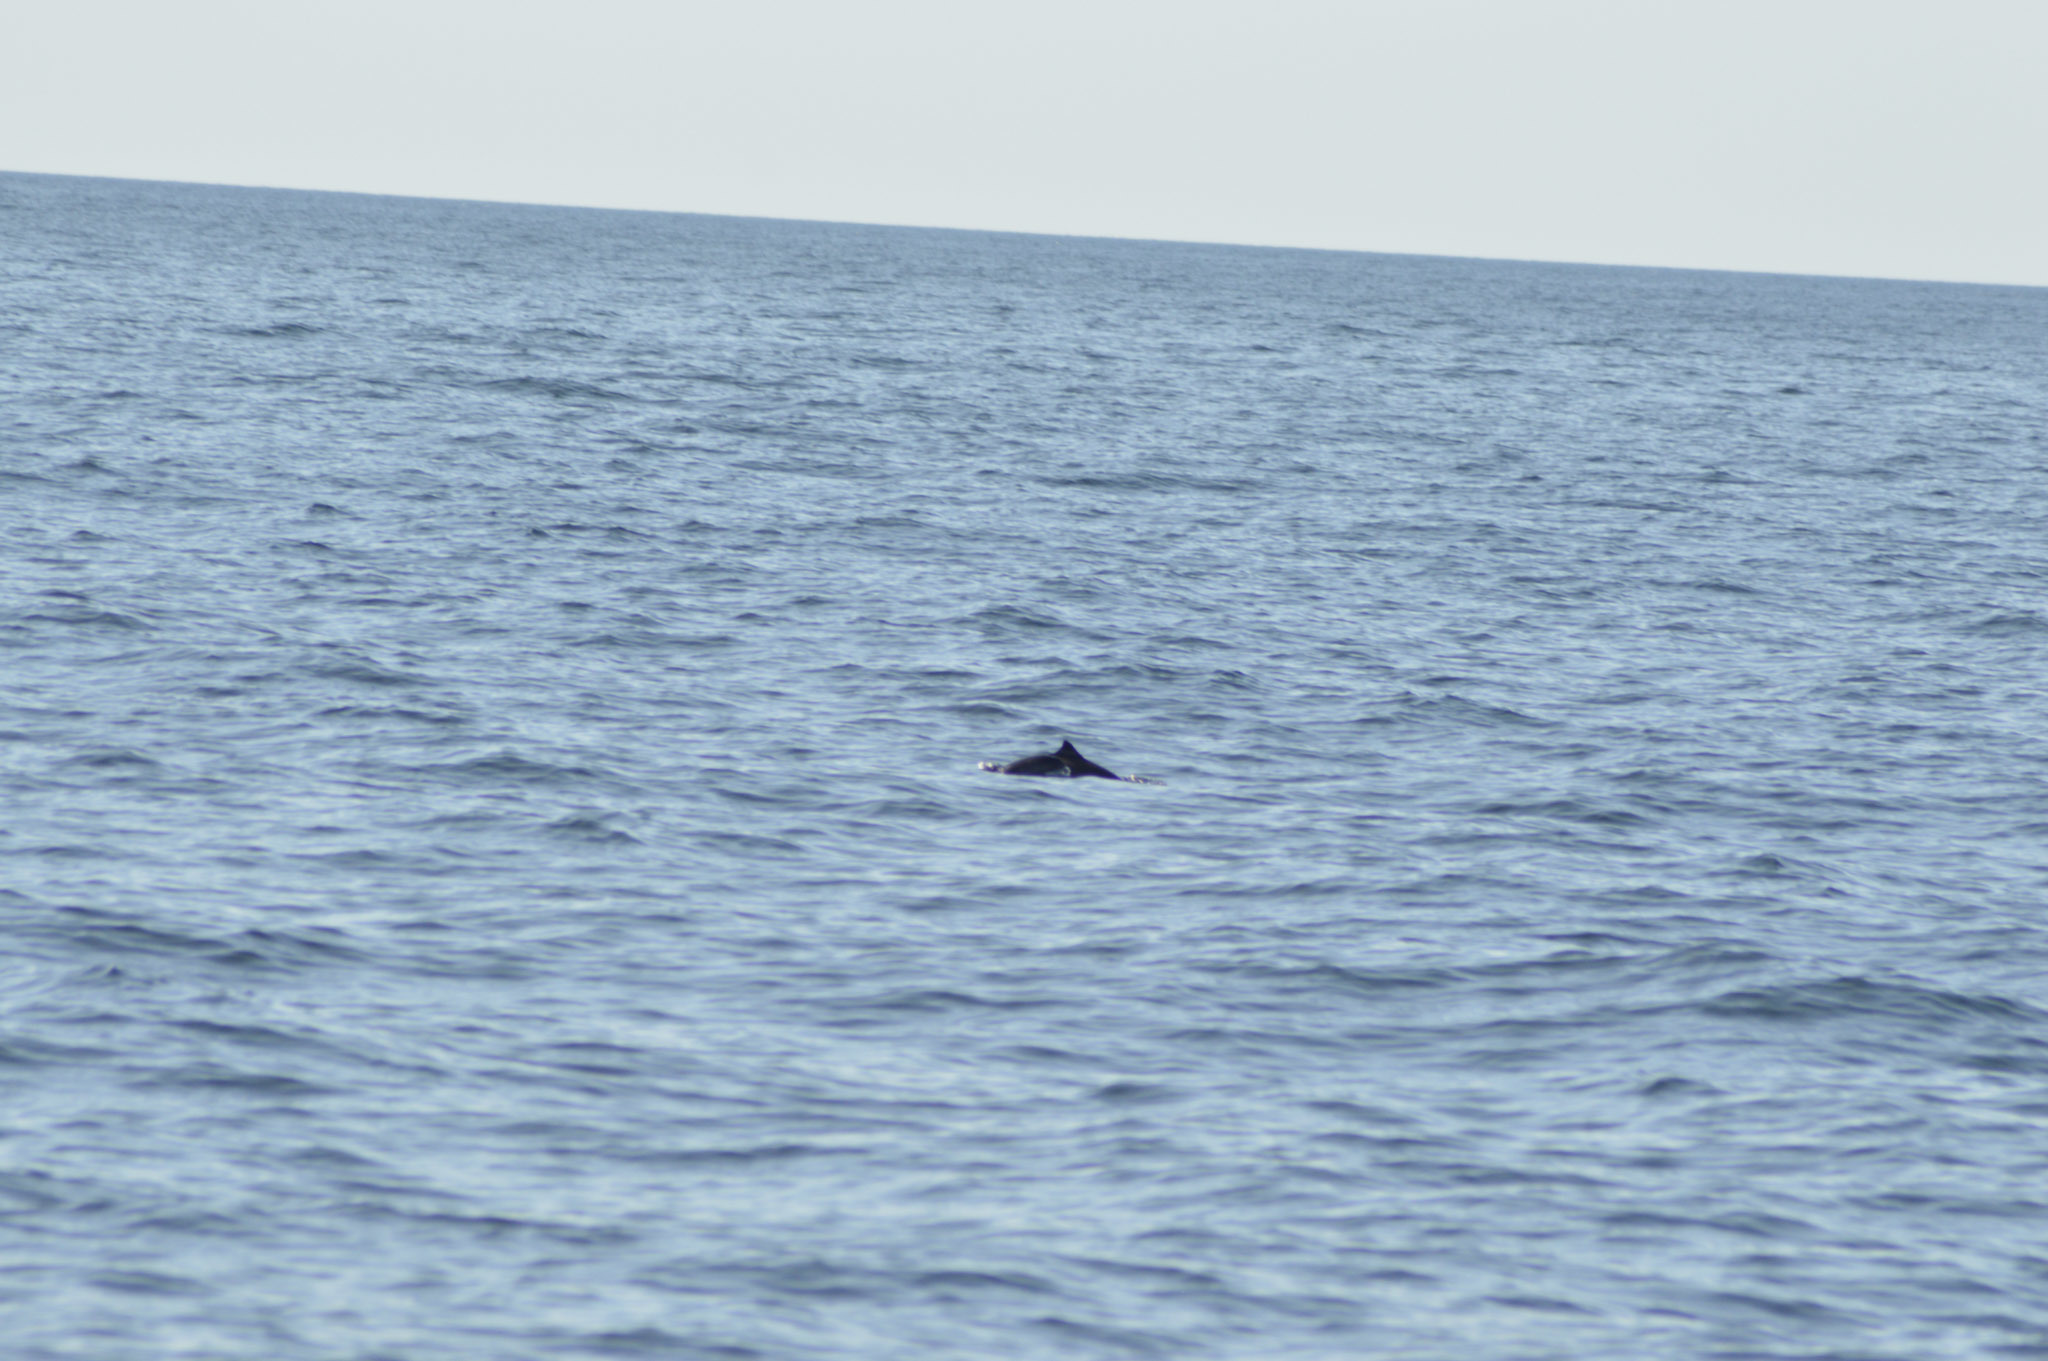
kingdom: Animalia
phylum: Chordata
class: Mammalia
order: Cetacea
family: Phocoenidae
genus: Phocoena
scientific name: Phocoena phocoena
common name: Harbor porpoise
